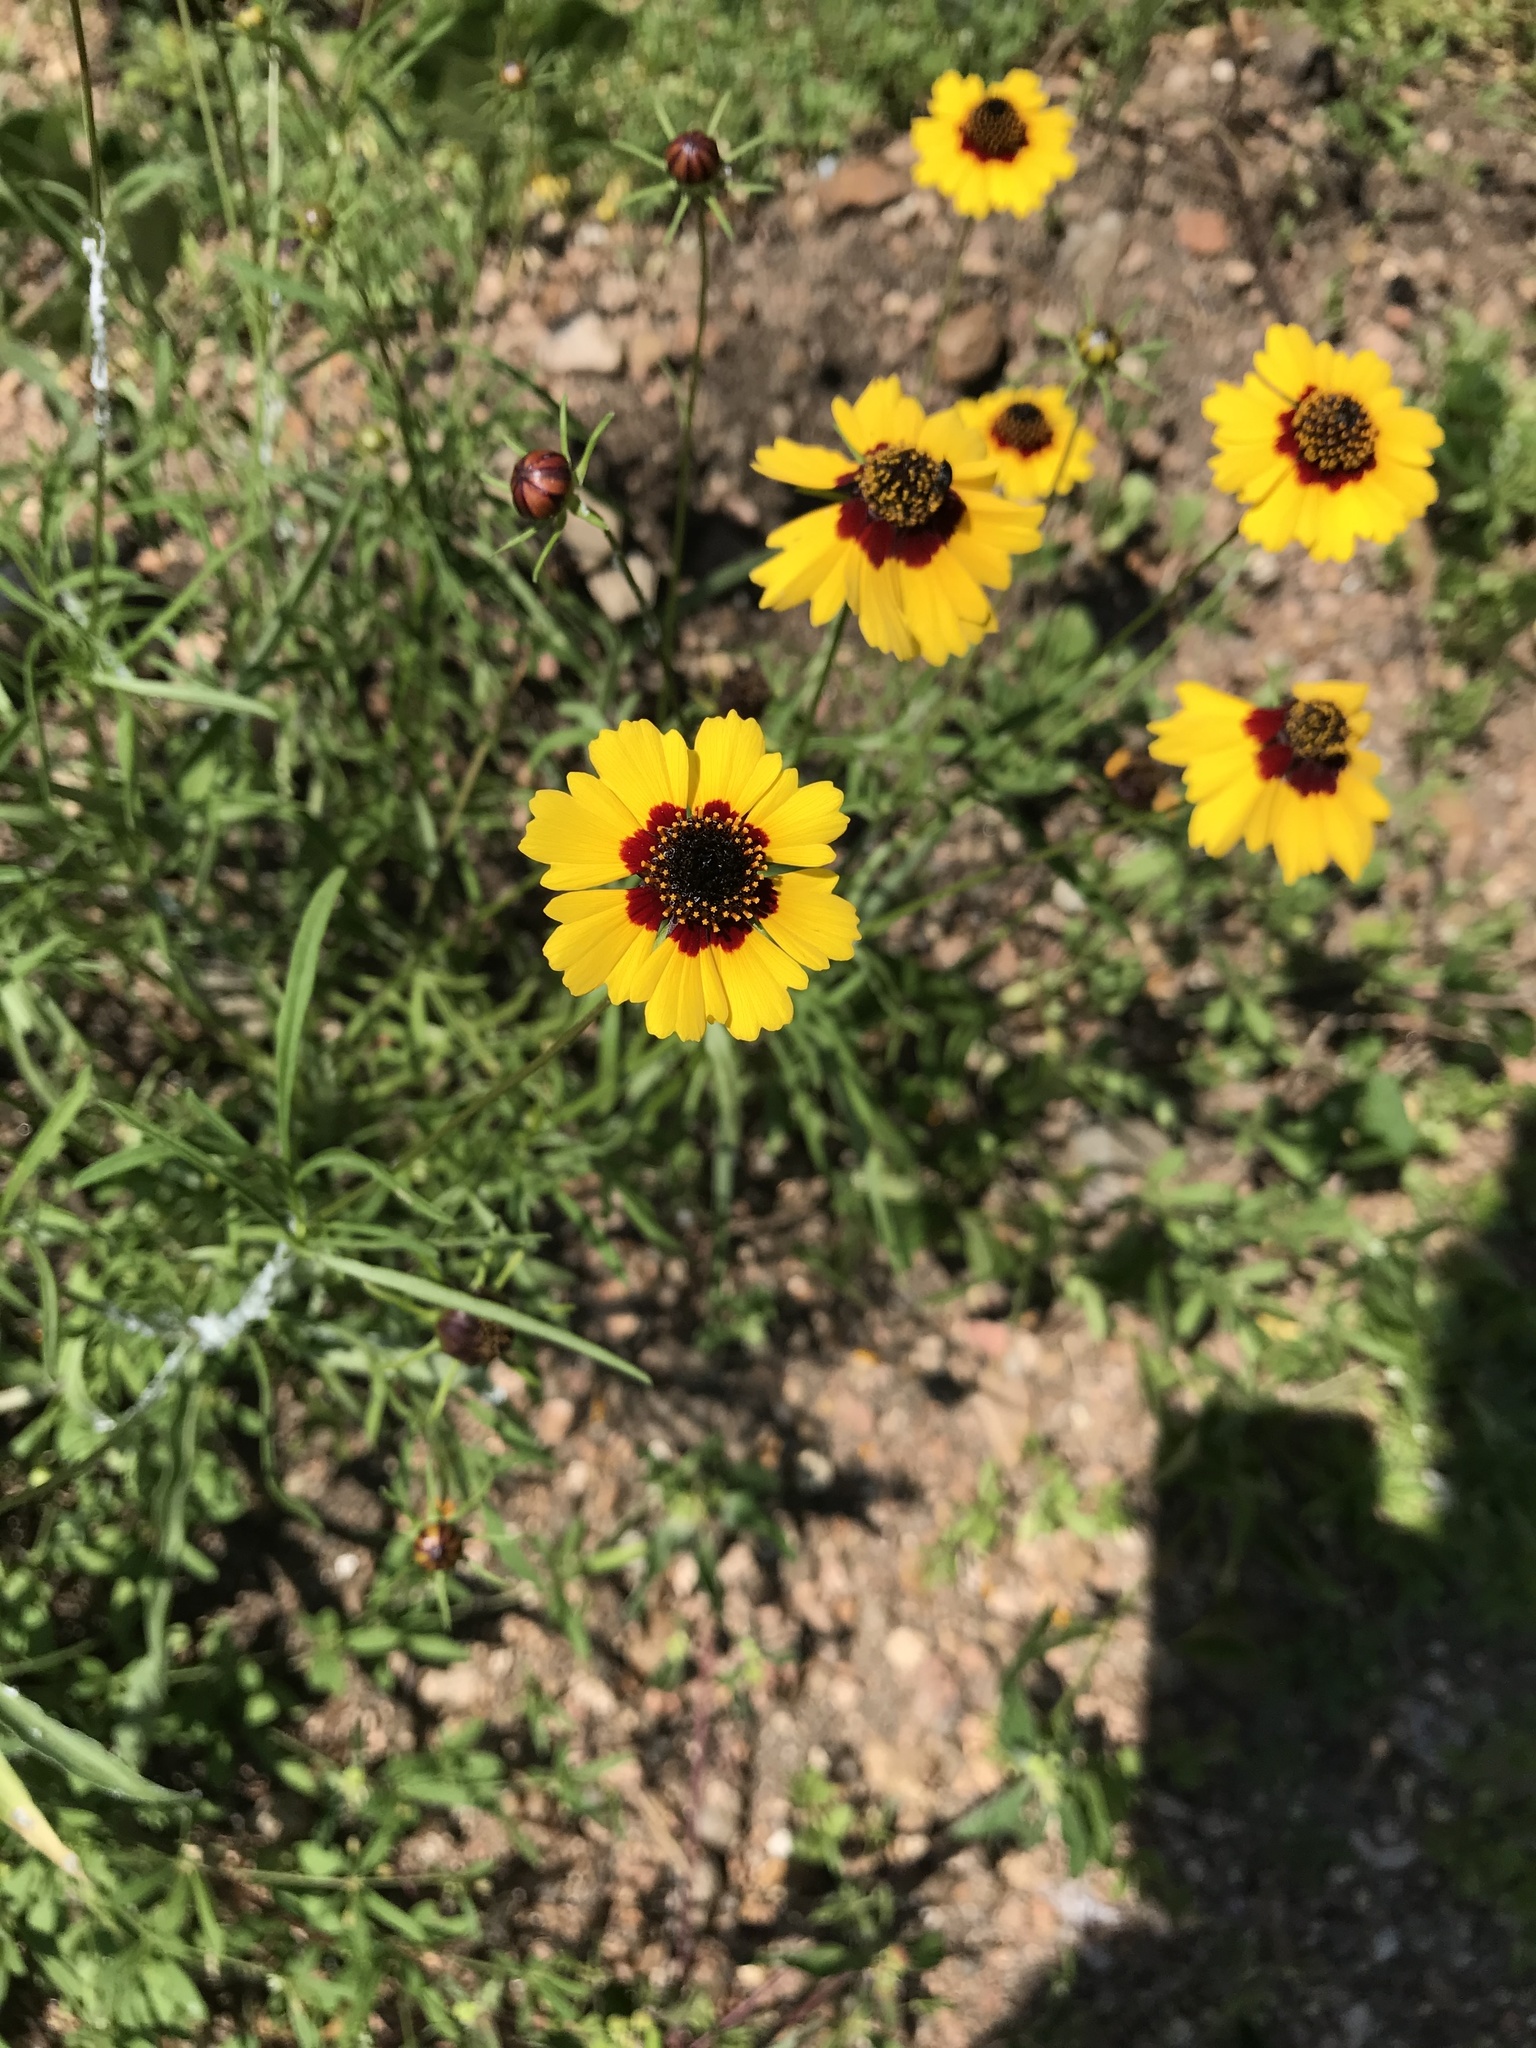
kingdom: Plantae
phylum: Tracheophyta
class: Magnoliopsida
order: Asterales
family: Asteraceae
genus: Coreopsis
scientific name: Coreopsis basalis
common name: Golden-mane coreopsis
